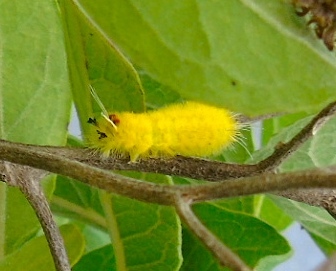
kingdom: Animalia
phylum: Arthropoda
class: Insecta
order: Lepidoptera
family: Erebidae
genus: Arctiinae
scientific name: Arctiinae
